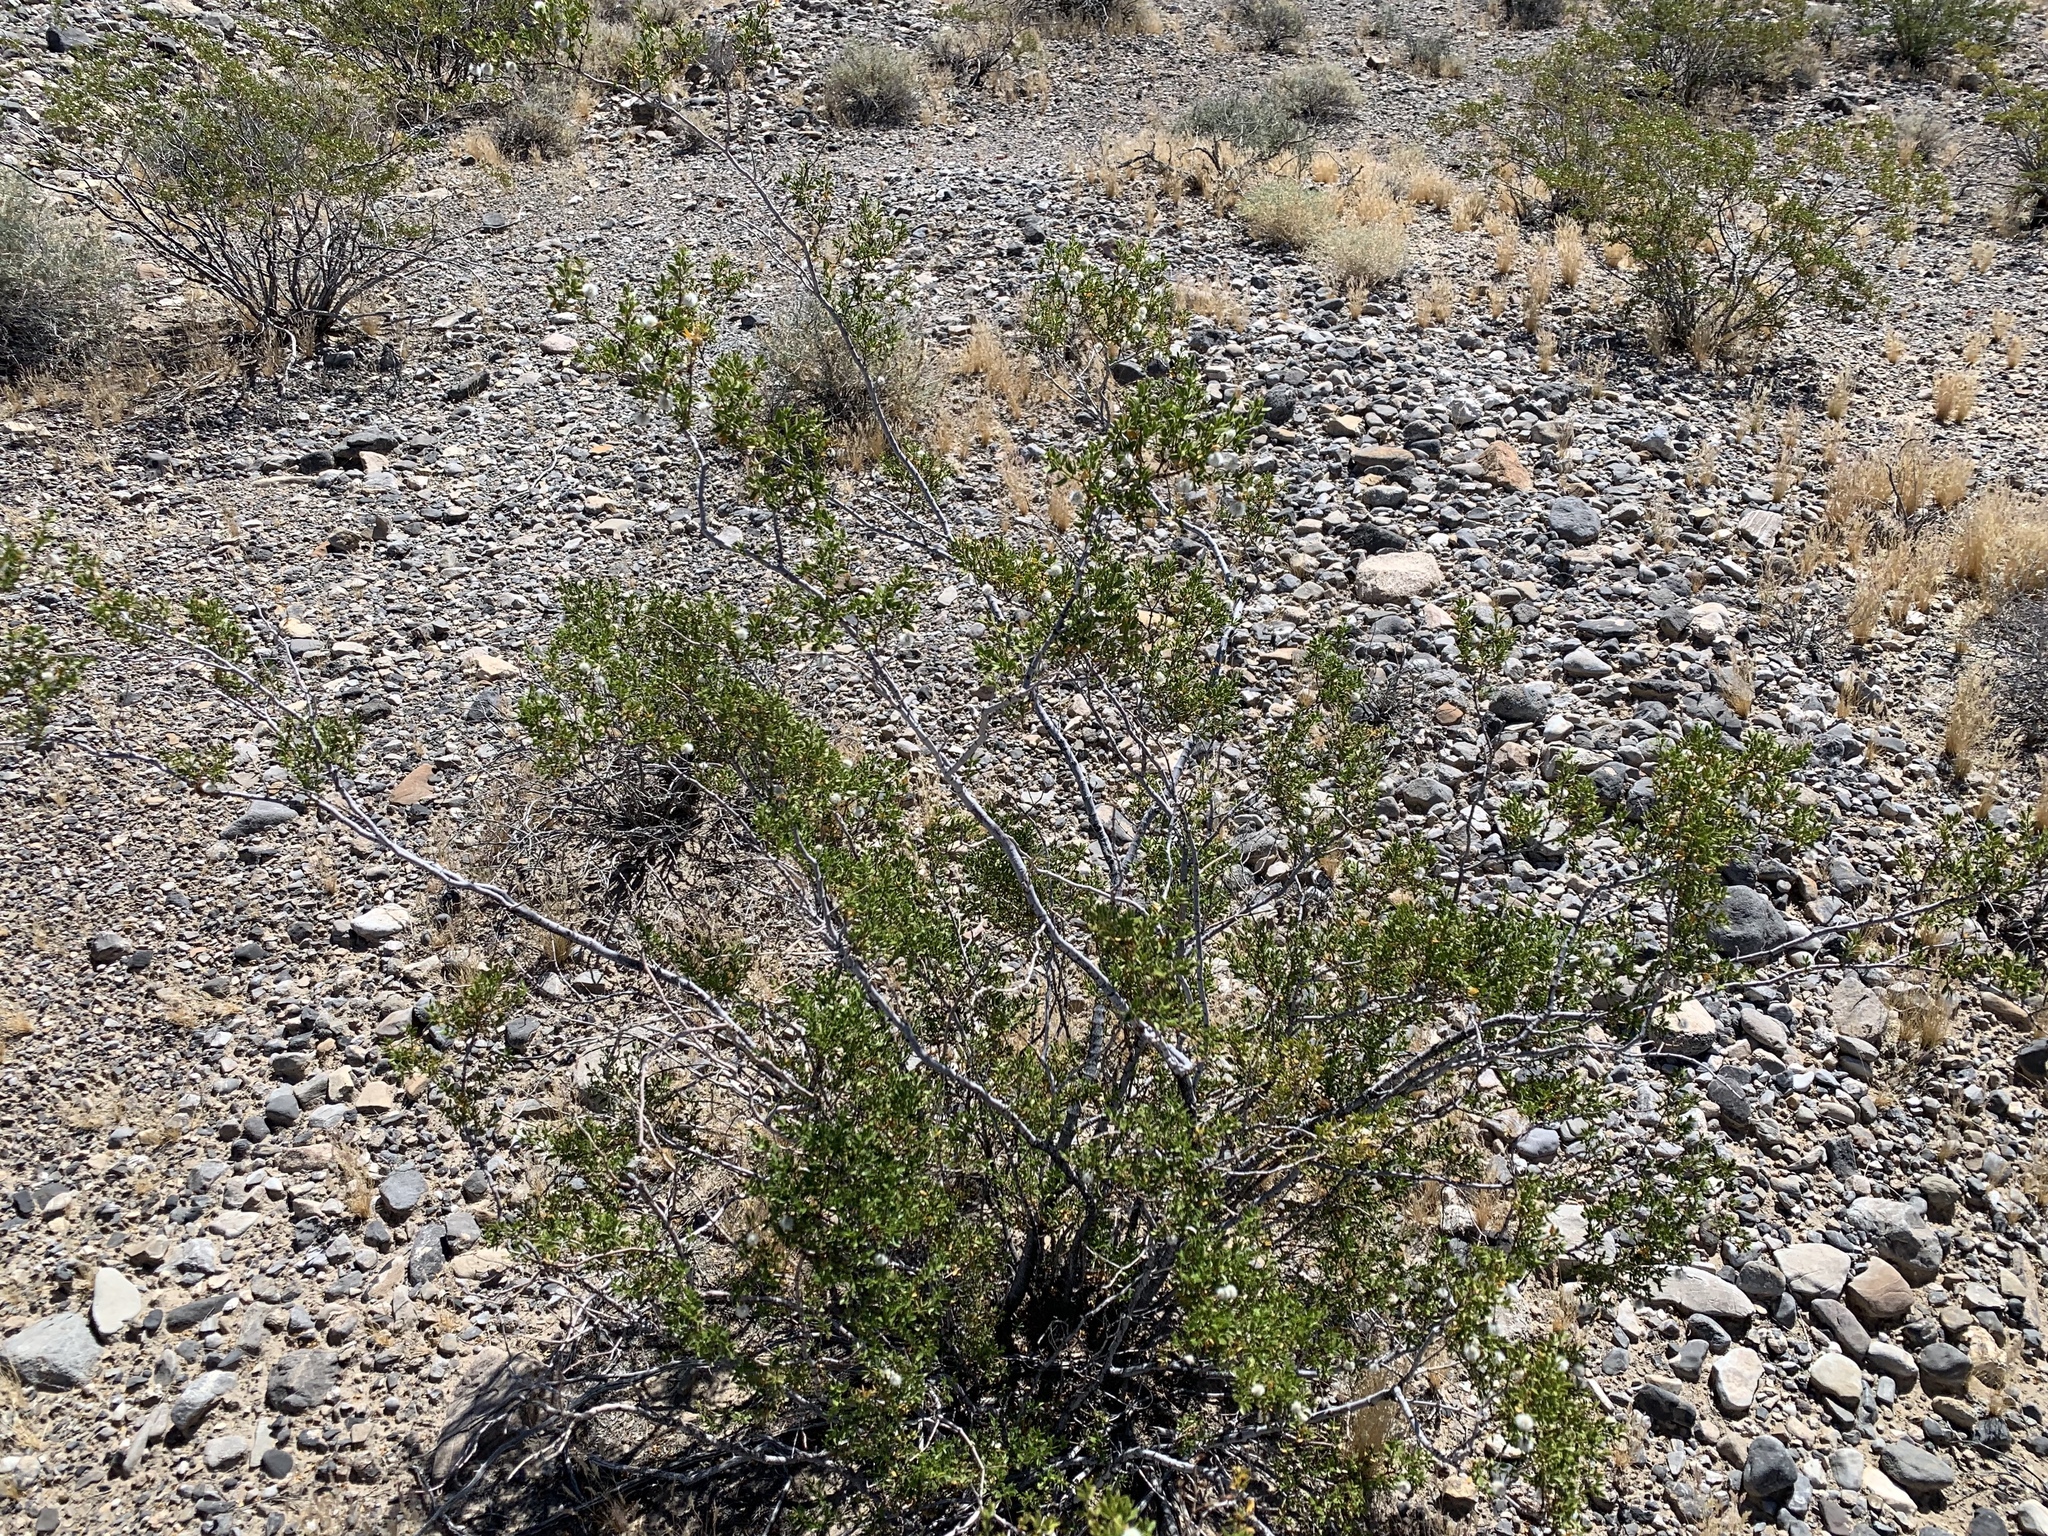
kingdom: Plantae
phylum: Tracheophyta
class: Magnoliopsida
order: Zygophyllales
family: Zygophyllaceae
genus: Larrea
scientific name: Larrea tridentata
